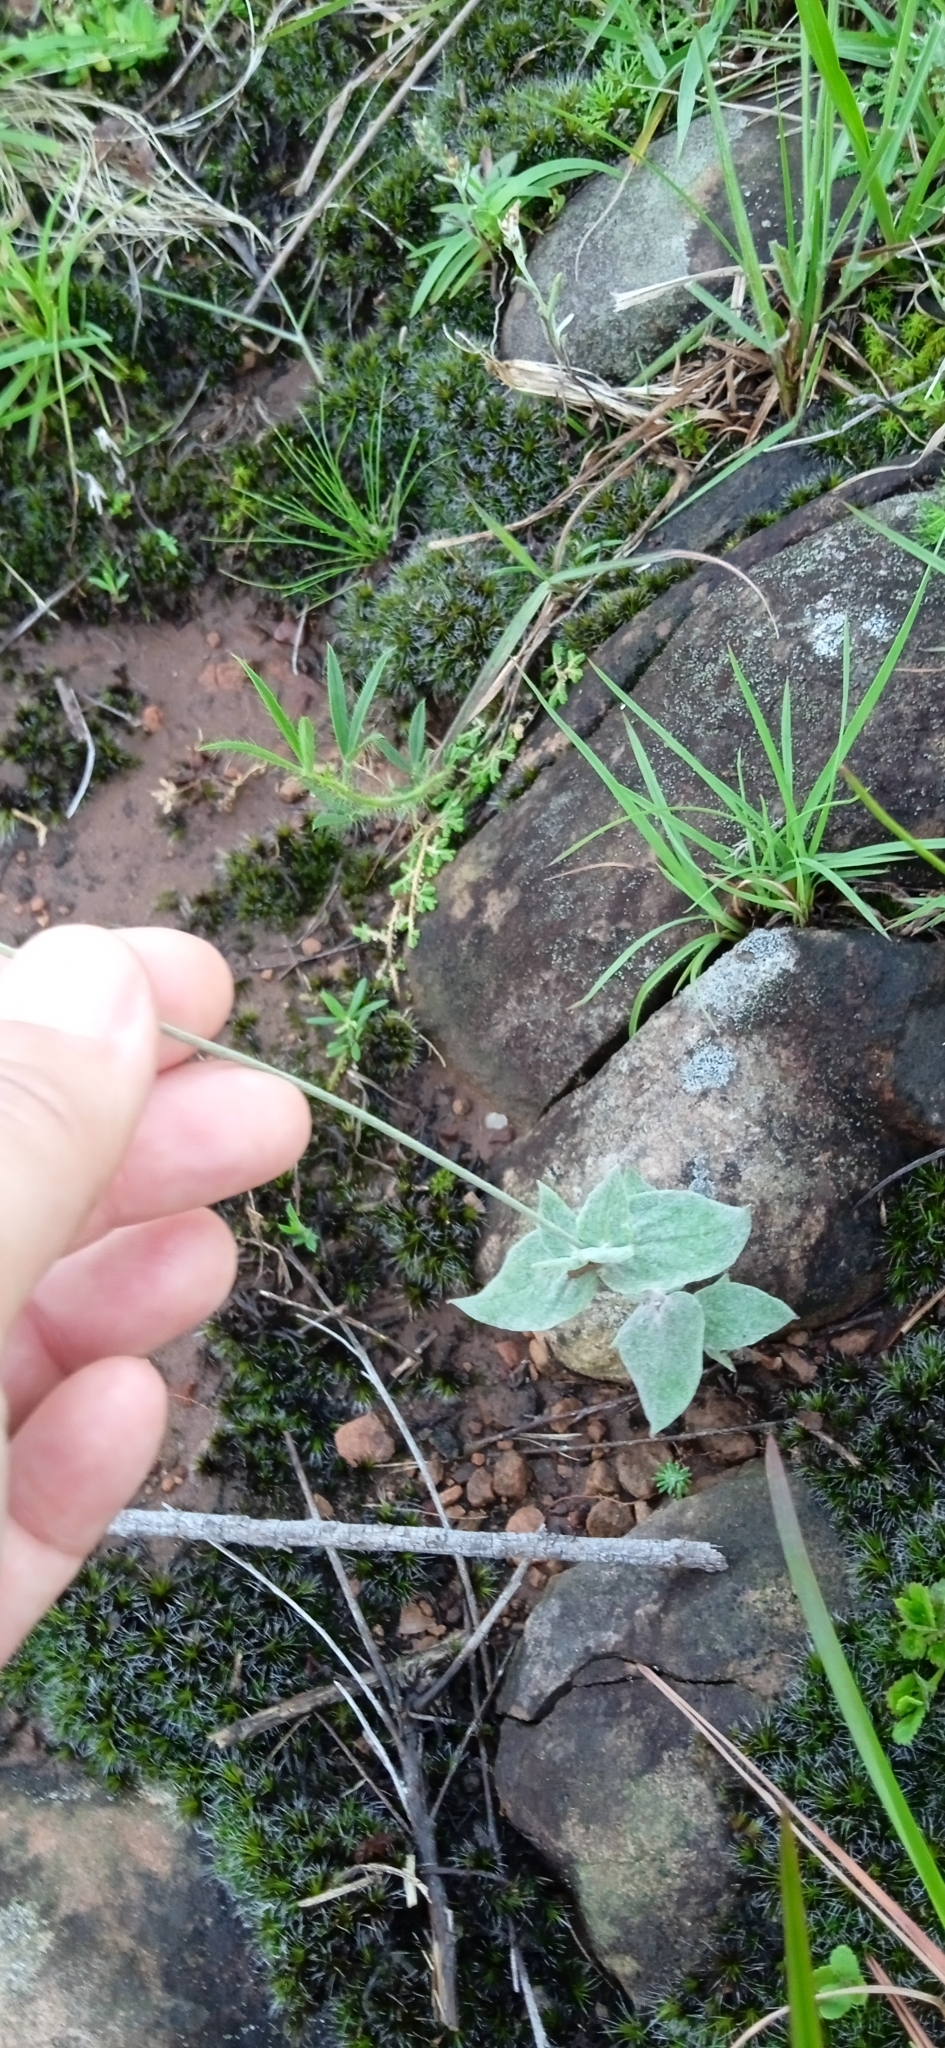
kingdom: Plantae
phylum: Tracheophyta
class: Magnoliopsida
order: Caryophyllales
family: Amaranthaceae
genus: Pfaffia
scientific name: Pfaffia gnaphalioides
